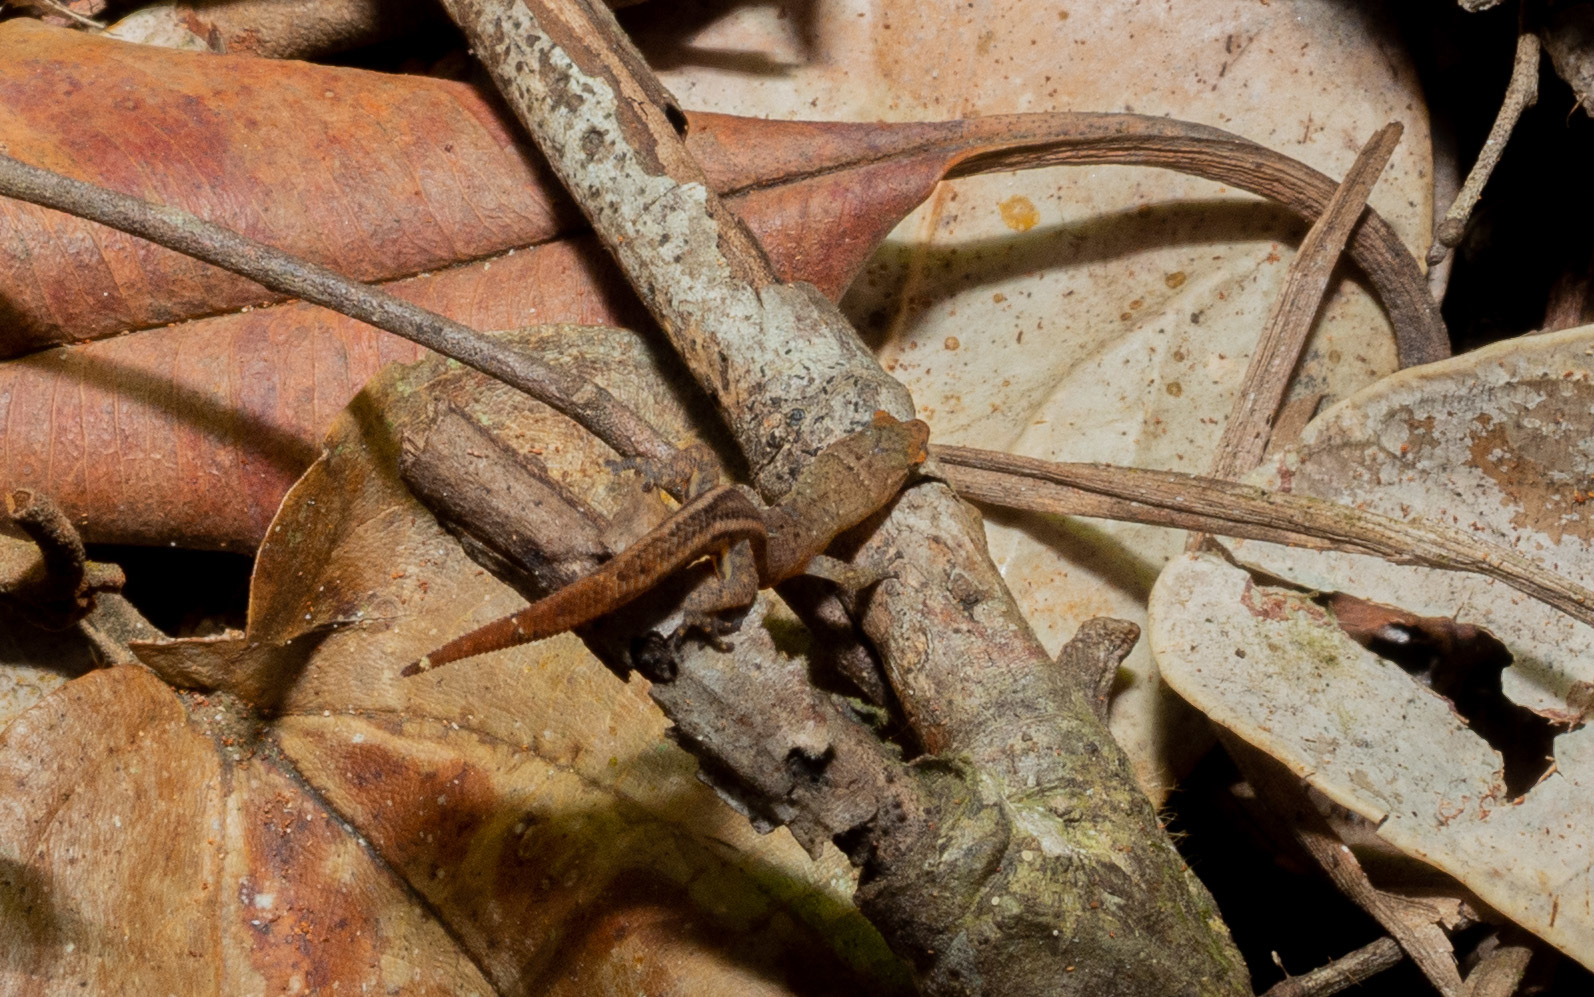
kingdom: Animalia
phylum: Chordata
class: Squamata
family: Sphaerodactylidae
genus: Coleodactylus
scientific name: Coleodactylus meridionalis
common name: Meridian gecko
